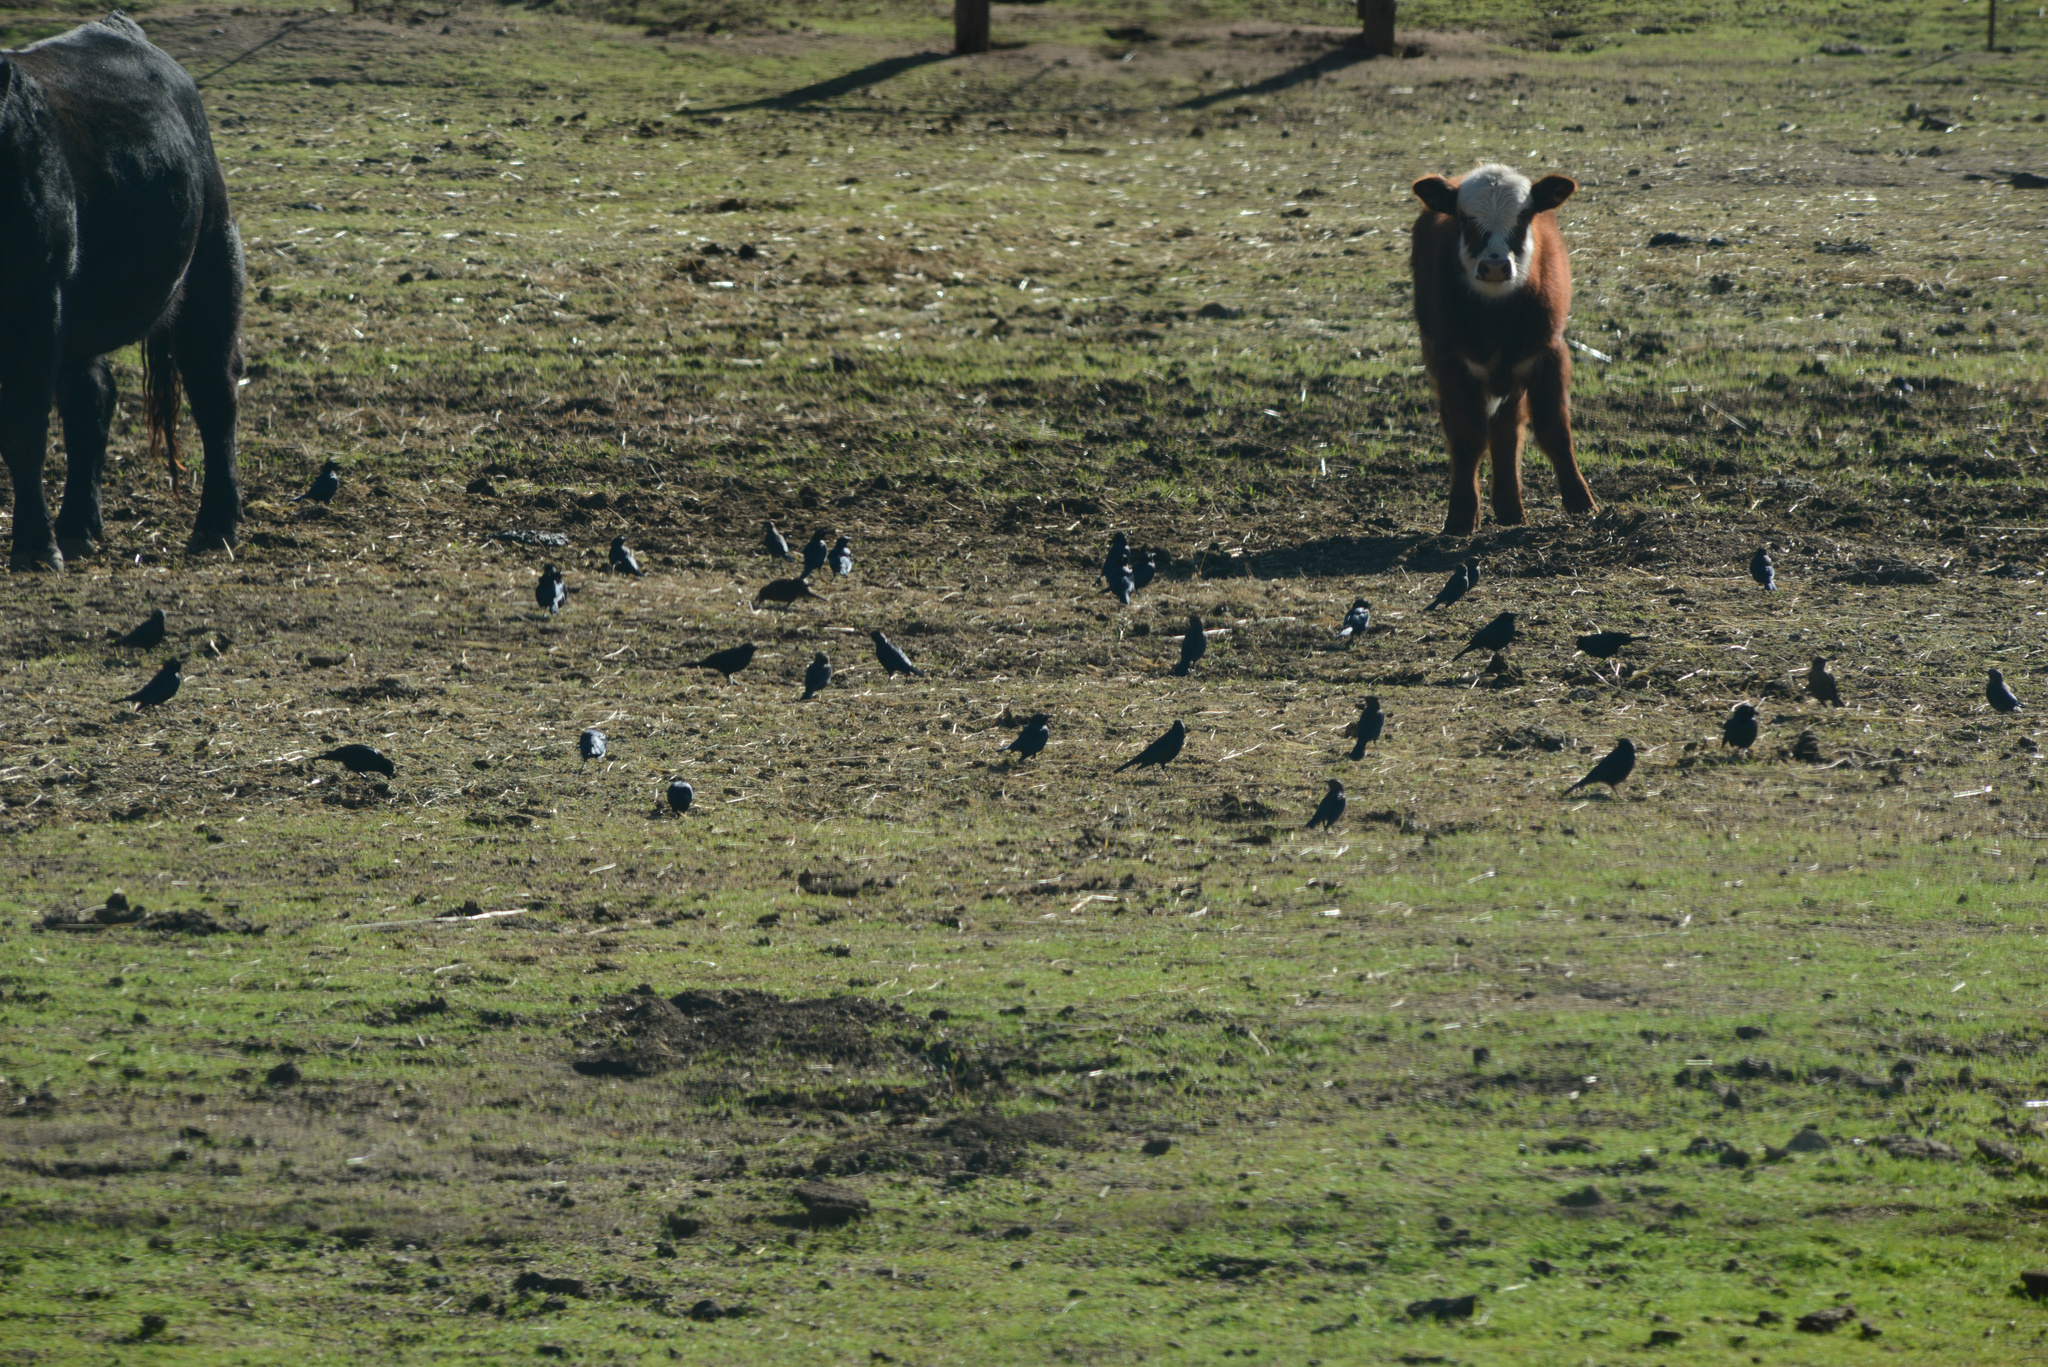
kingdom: Animalia
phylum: Chordata
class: Aves
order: Passeriformes
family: Icteridae
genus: Euphagus
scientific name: Euphagus cyanocephalus
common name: Brewer's blackbird
